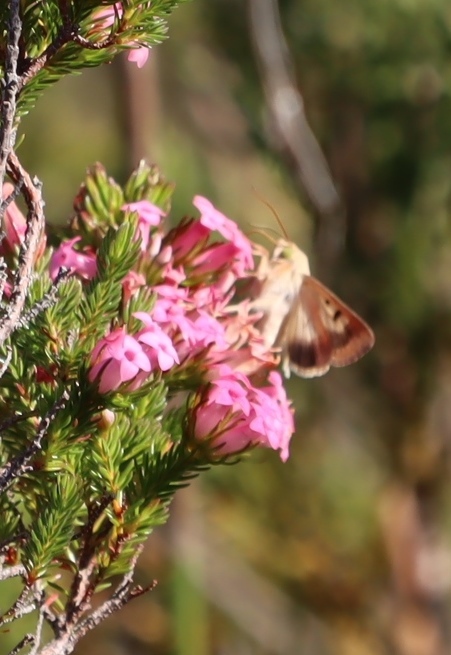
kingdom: Animalia
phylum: Arthropoda
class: Insecta
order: Lepidoptera
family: Noctuidae
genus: Helicoverpa
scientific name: Helicoverpa armigera
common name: Cotton bollworm
